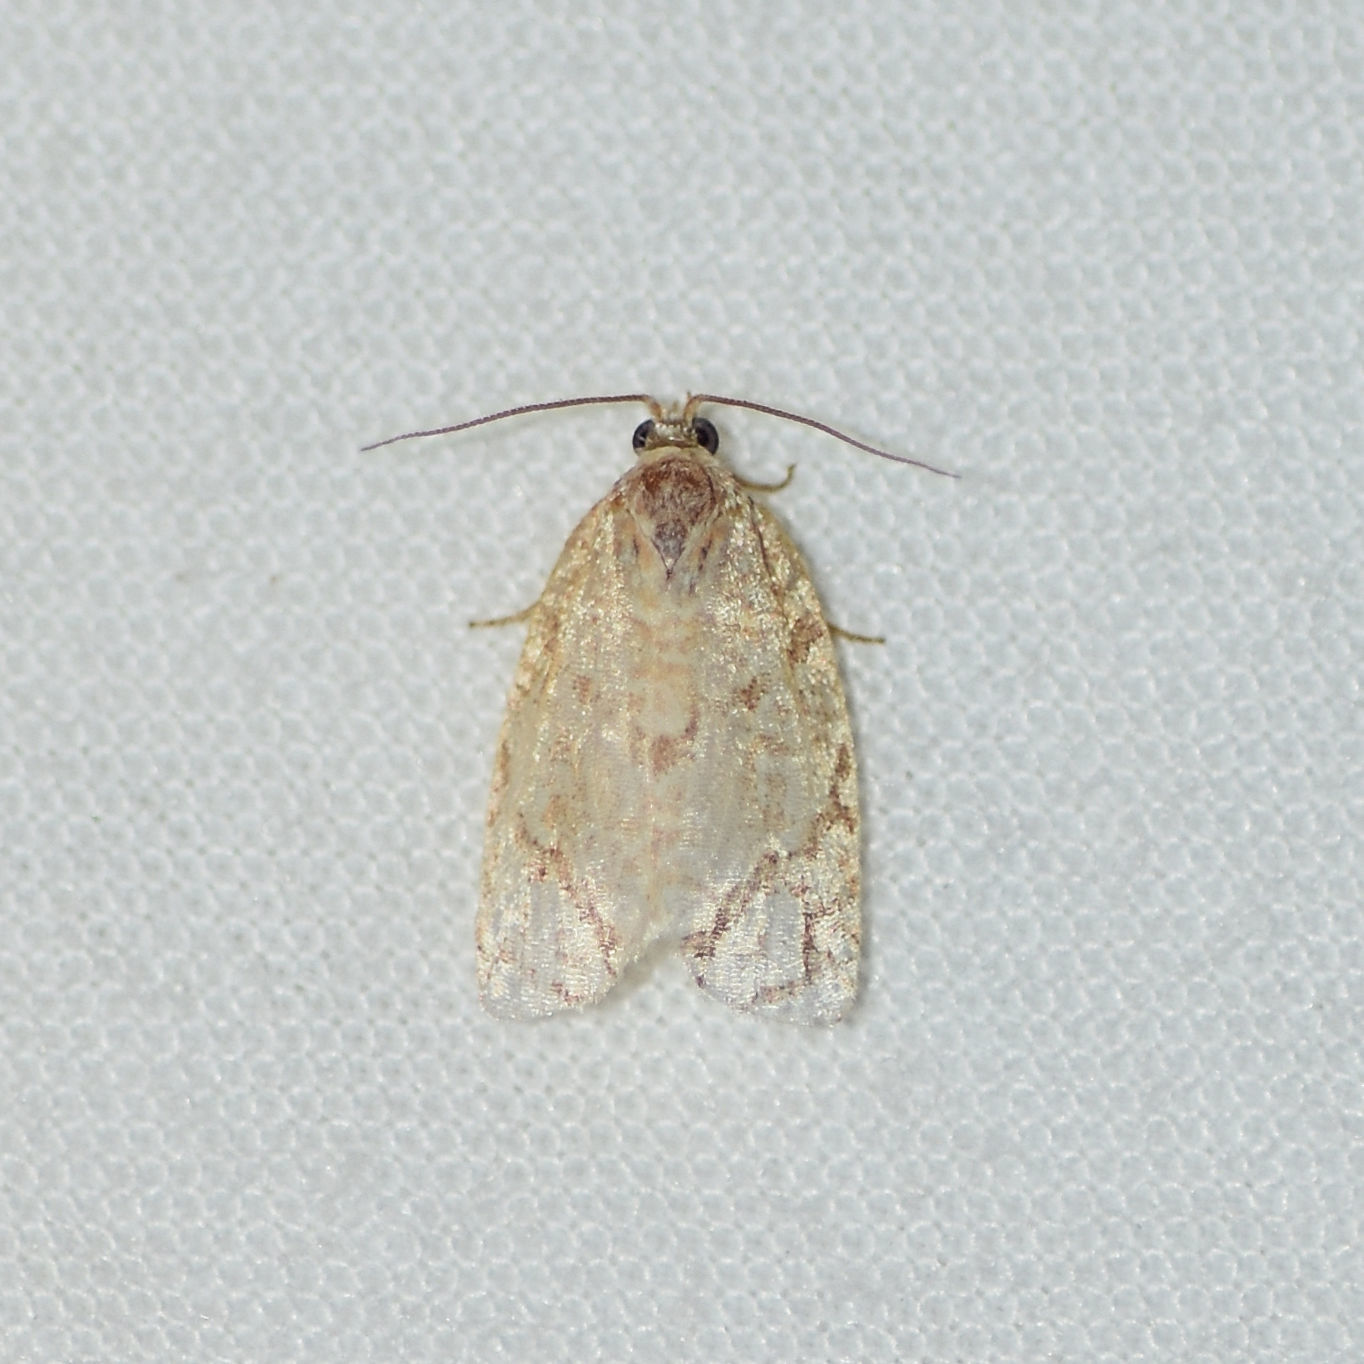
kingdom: Animalia
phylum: Arthropoda
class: Insecta
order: Lepidoptera
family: Tortricidae
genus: Argyrotaenia
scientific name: Argyrotaenia quercifoliana
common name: Yellow-winged oak leafroller moth
